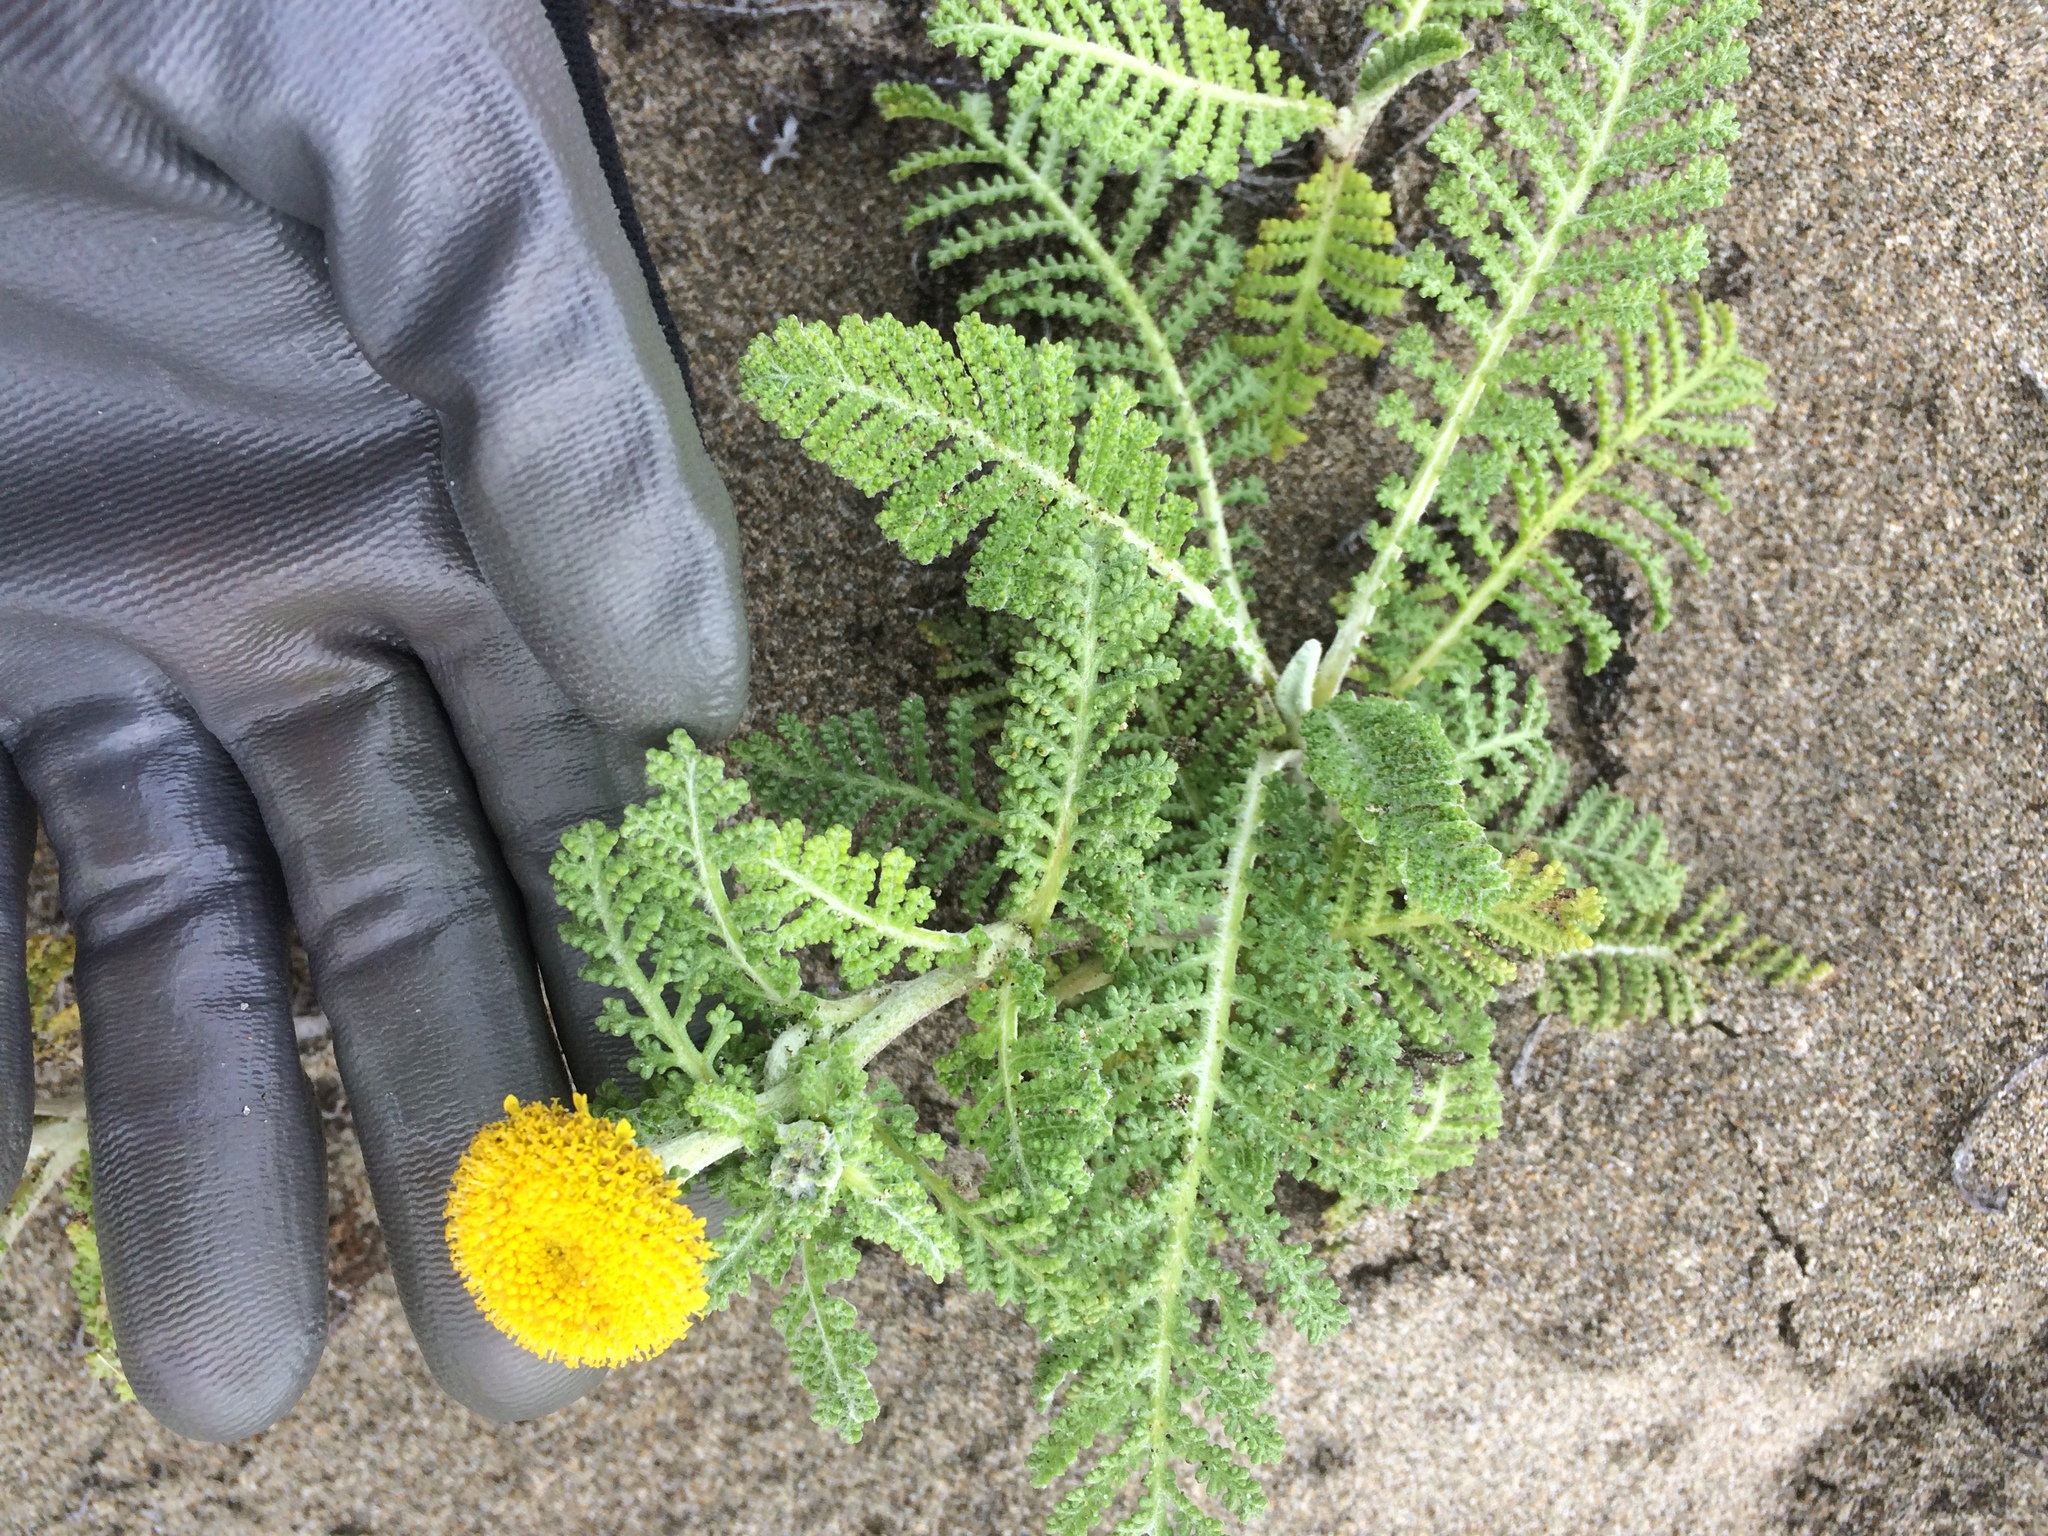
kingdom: Plantae
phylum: Tracheophyta
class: Magnoliopsida
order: Asterales
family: Asteraceae
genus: Tanacetum
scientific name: Tanacetum bipinnatum
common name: Dwarf tansy
